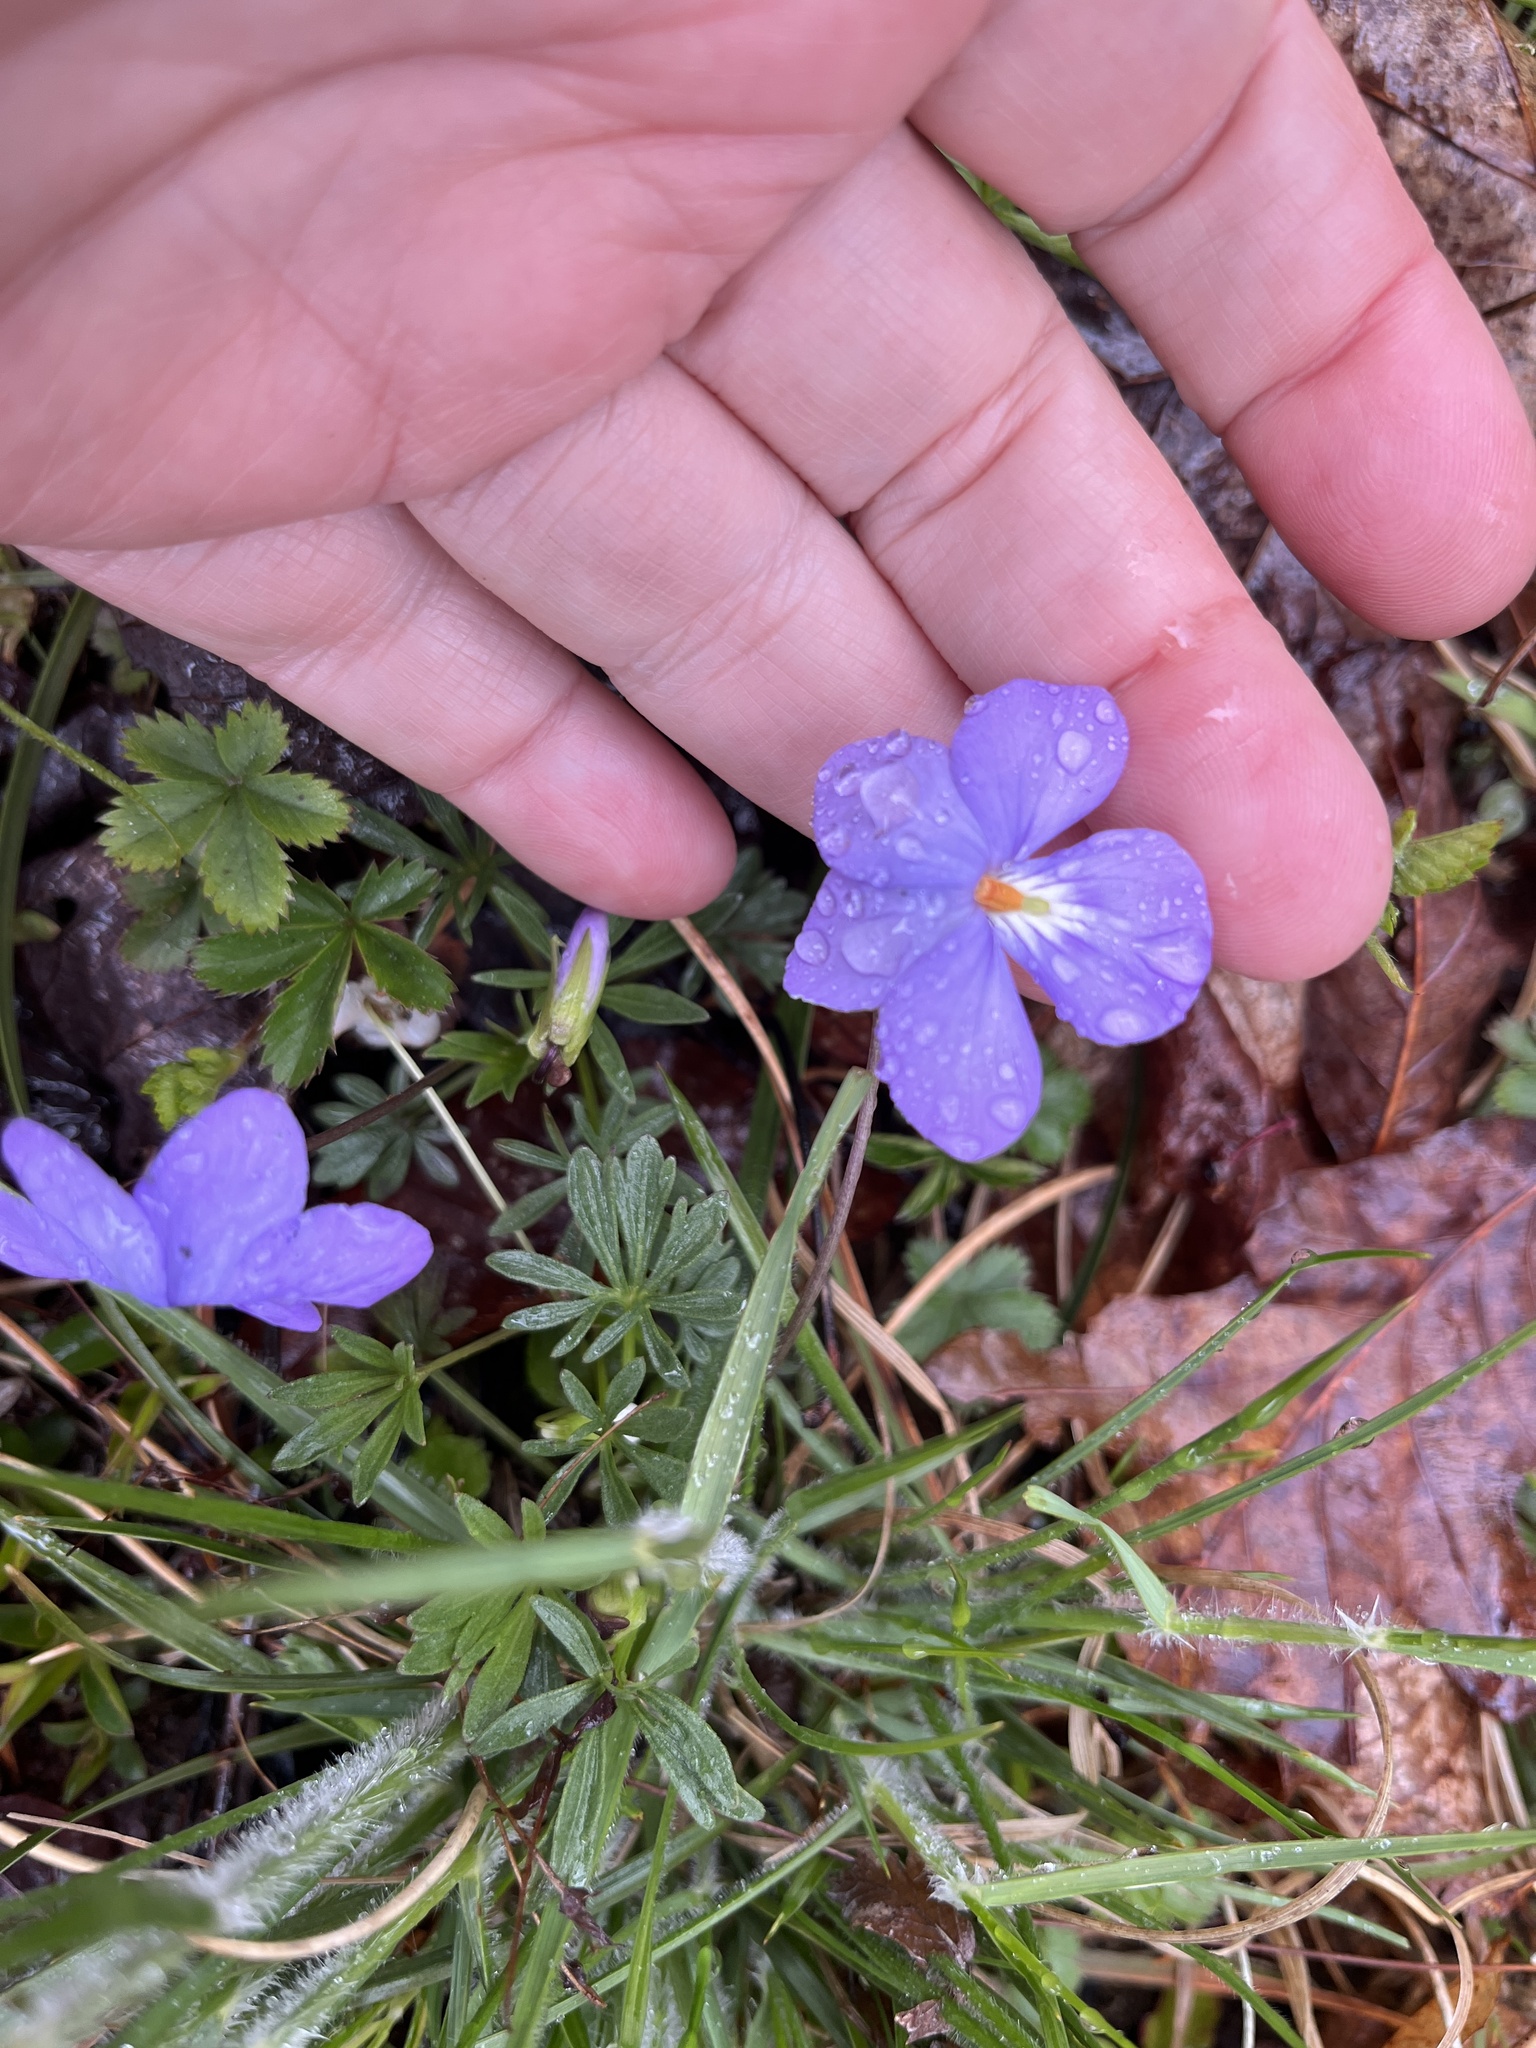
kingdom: Plantae
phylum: Tracheophyta
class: Magnoliopsida
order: Malpighiales
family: Violaceae
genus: Viola
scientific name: Viola pedata
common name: Pansy violet
